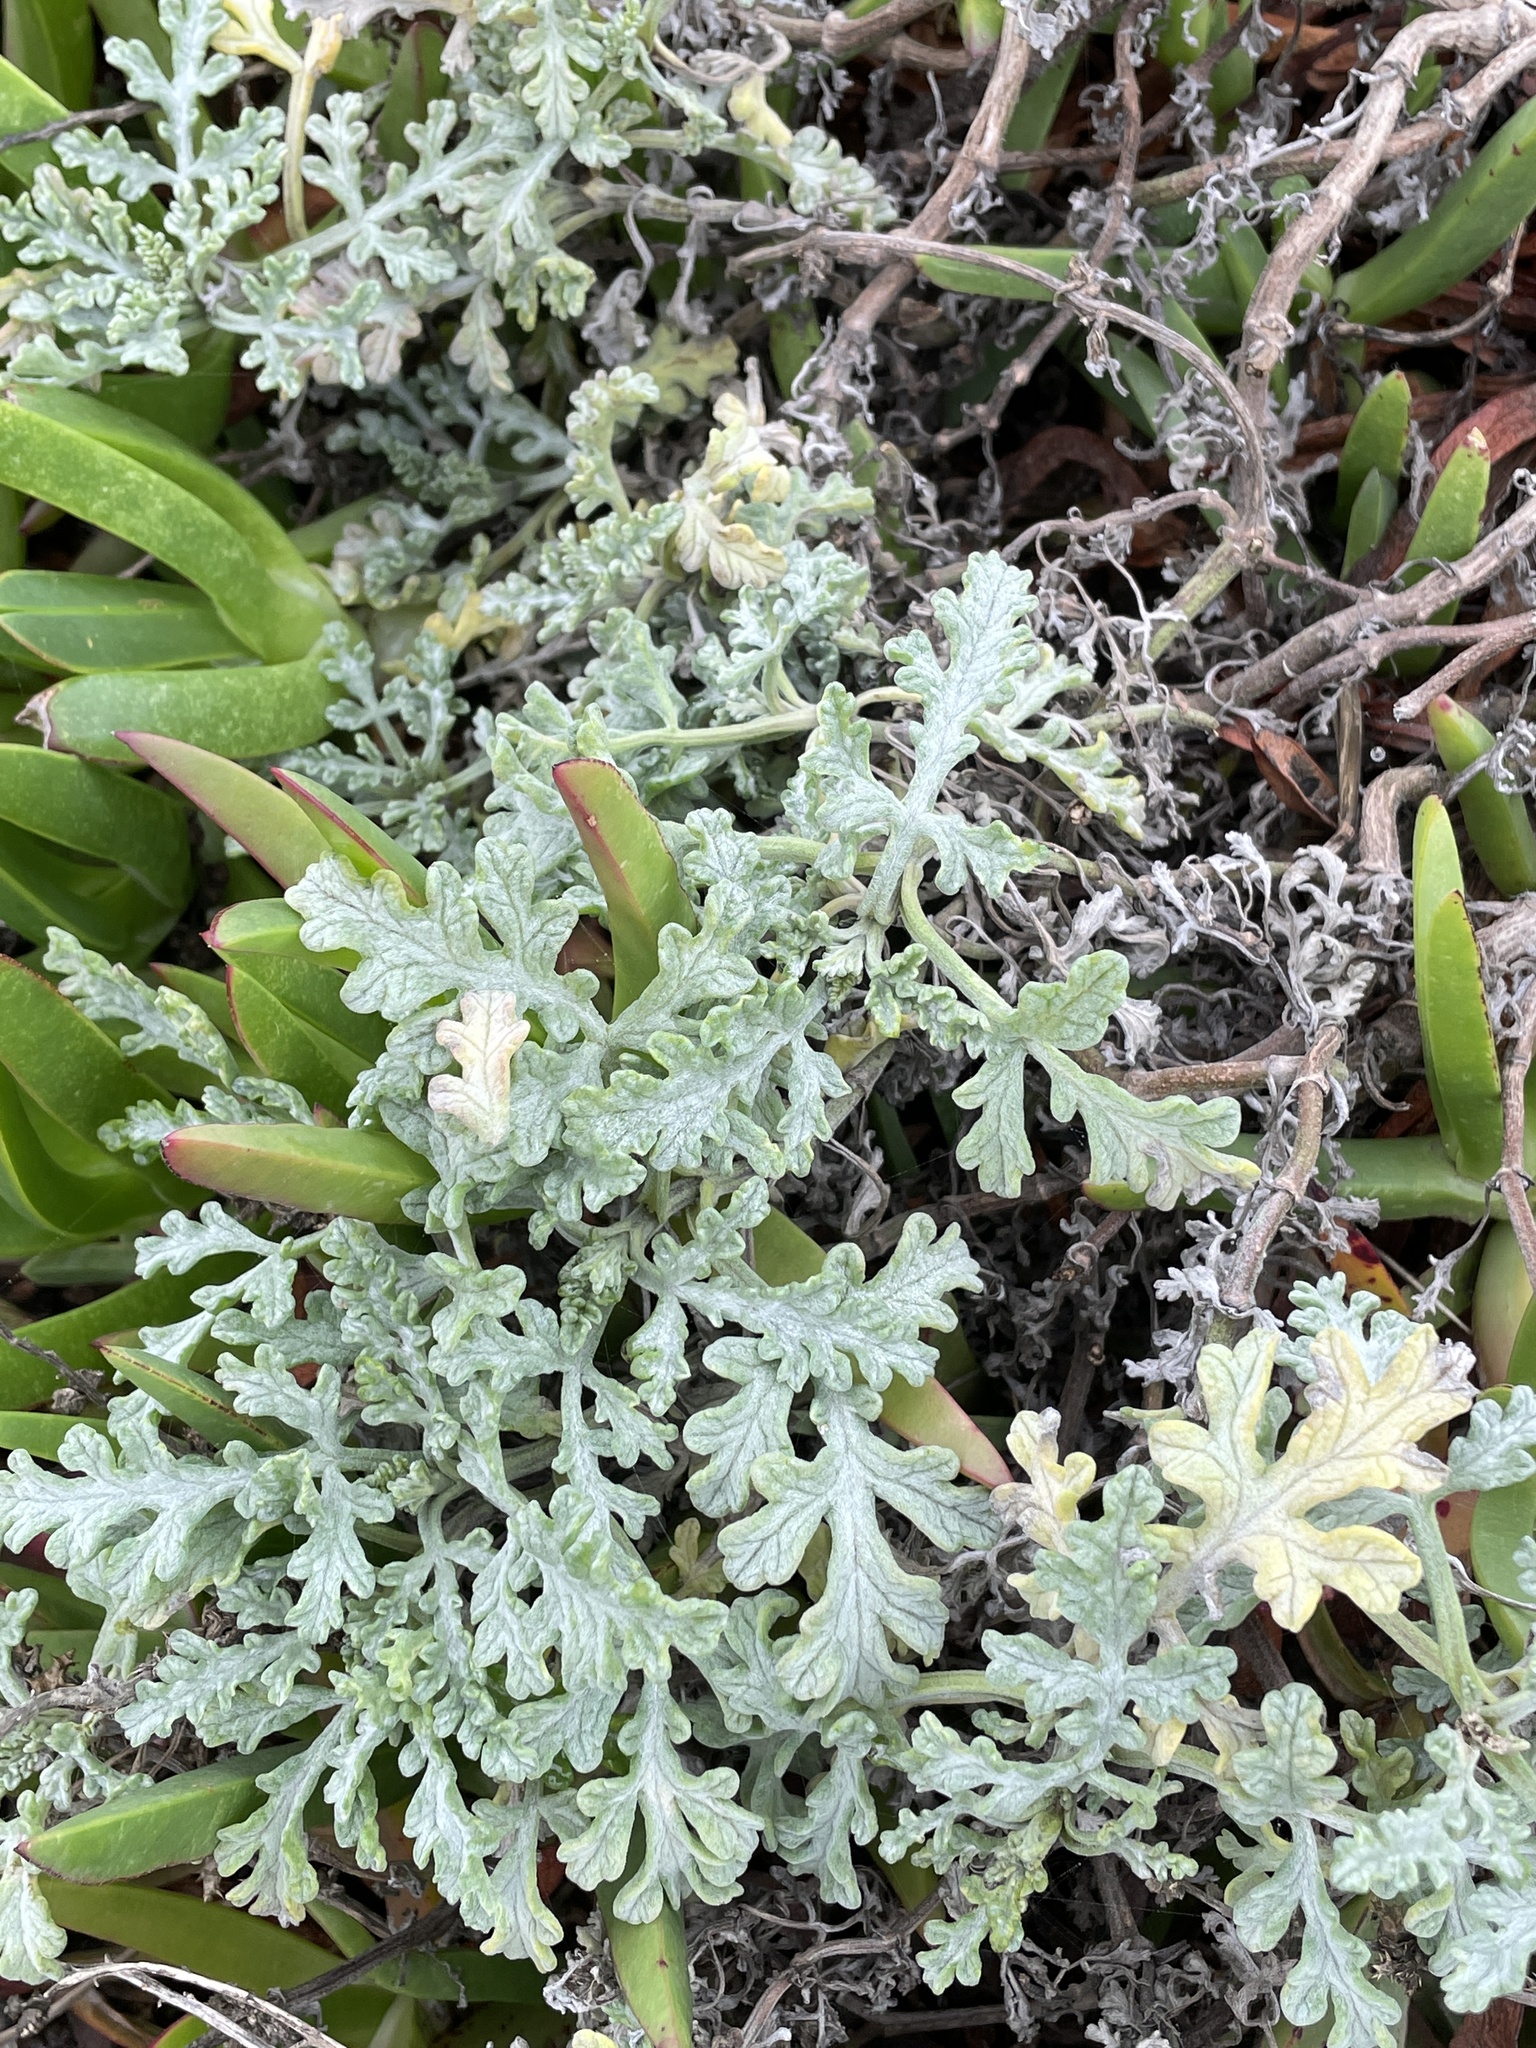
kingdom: Plantae
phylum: Tracheophyta
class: Magnoliopsida
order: Asterales
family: Asteraceae
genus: Ambrosia
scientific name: Ambrosia chamissonis
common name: Beachbur
